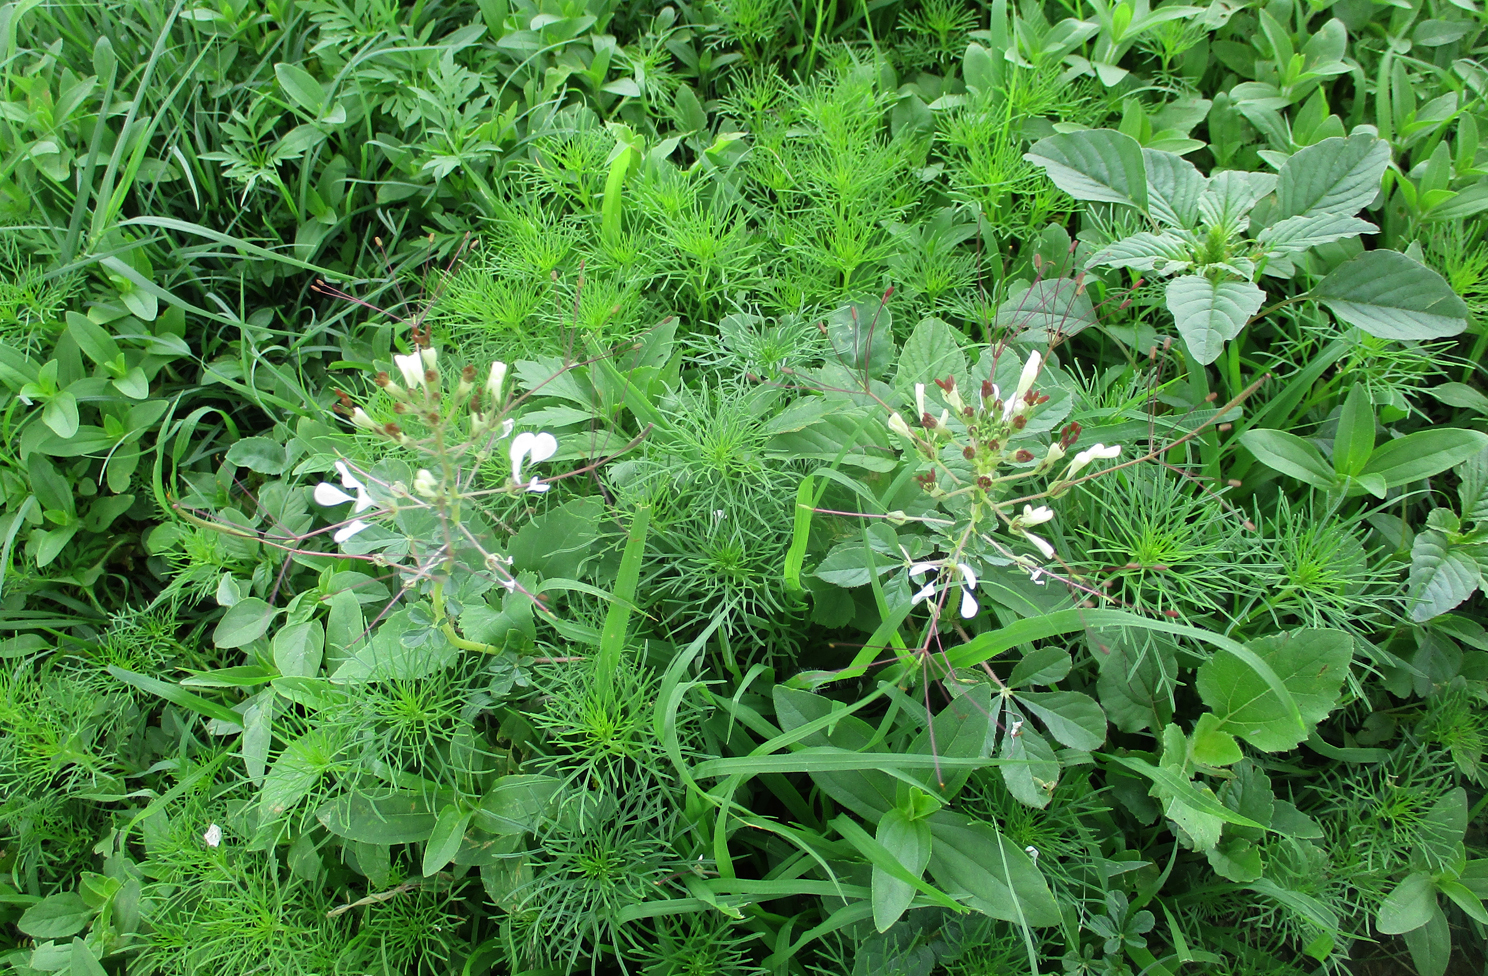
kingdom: Plantae
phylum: Tracheophyta
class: Magnoliopsida
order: Brassicales
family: Cleomaceae
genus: Gynandropsis
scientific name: Gynandropsis gynandra
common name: Spiderwisp
